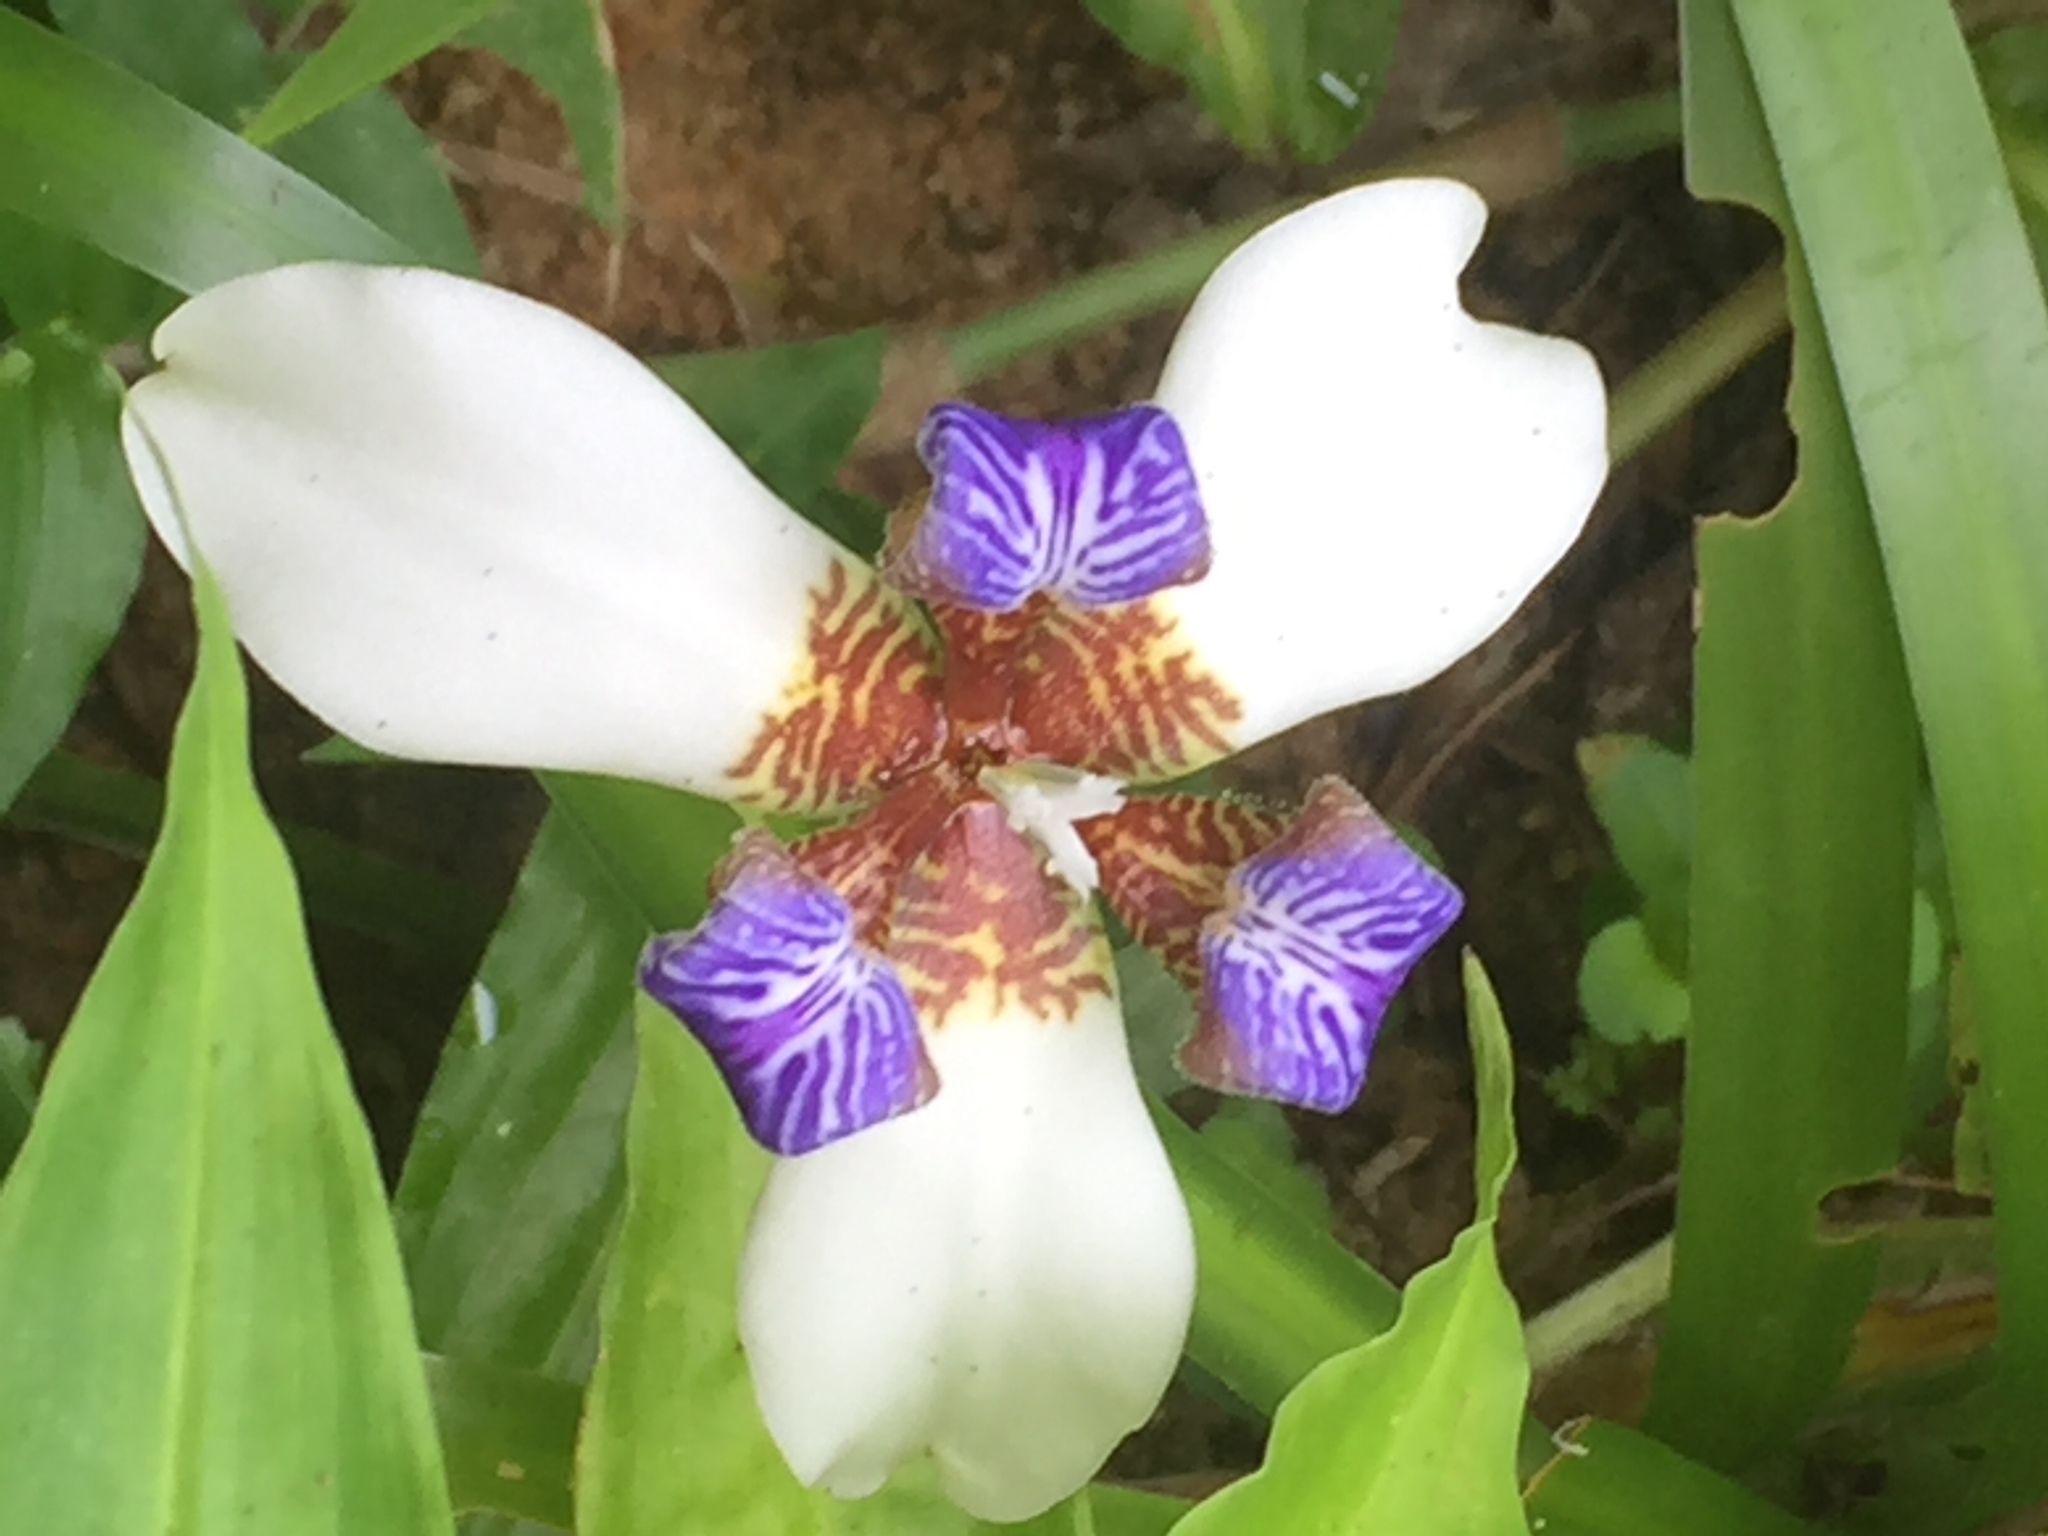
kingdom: Plantae
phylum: Tracheophyta
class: Liliopsida
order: Asparagales
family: Iridaceae
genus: Trimezia
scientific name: Trimezia northiana
